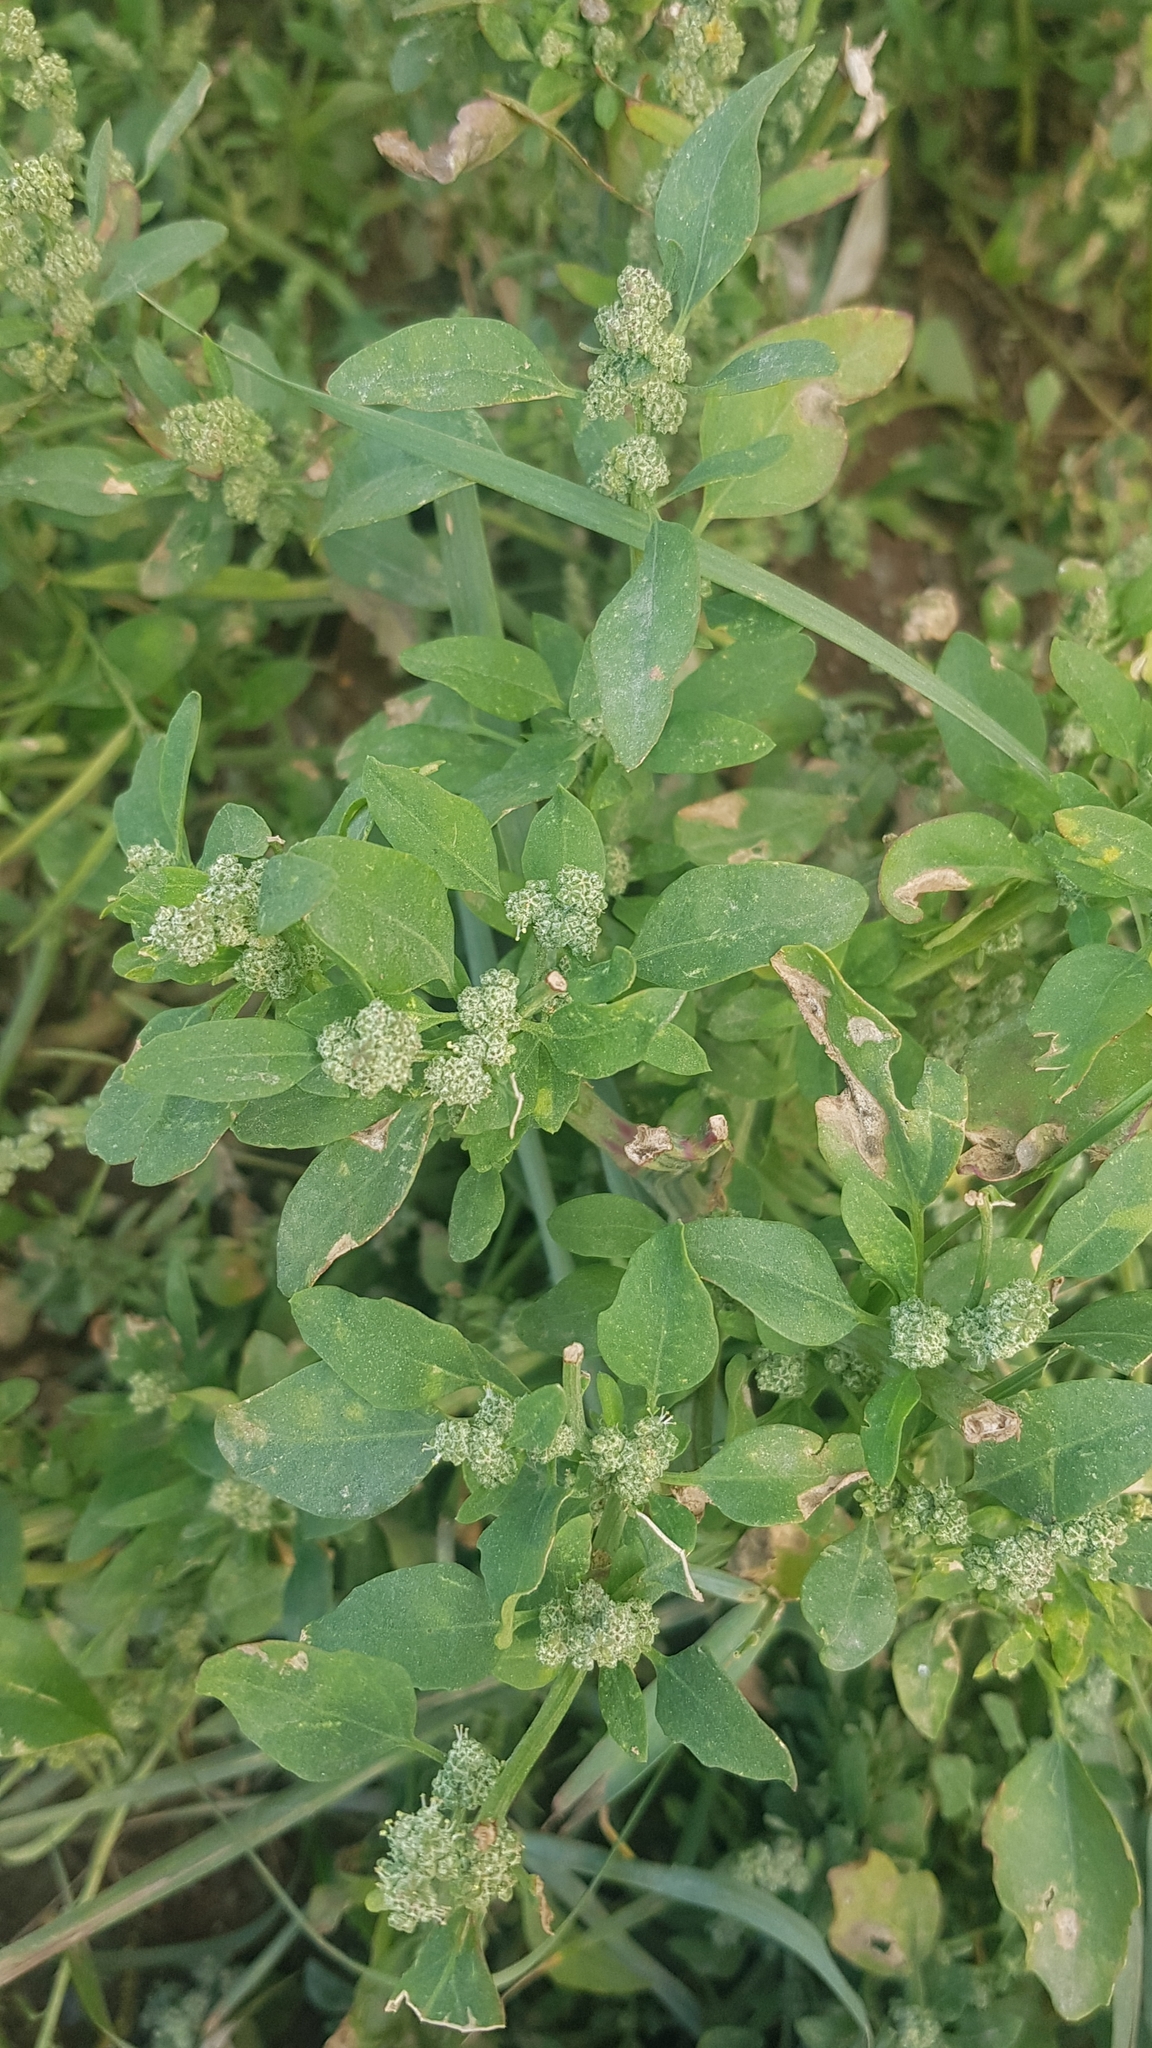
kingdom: Plantae
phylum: Tracheophyta
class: Magnoliopsida
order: Caryophyllales
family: Amaranthaceae
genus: Chenopodium
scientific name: Chenopodium album
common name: Fat-hen
